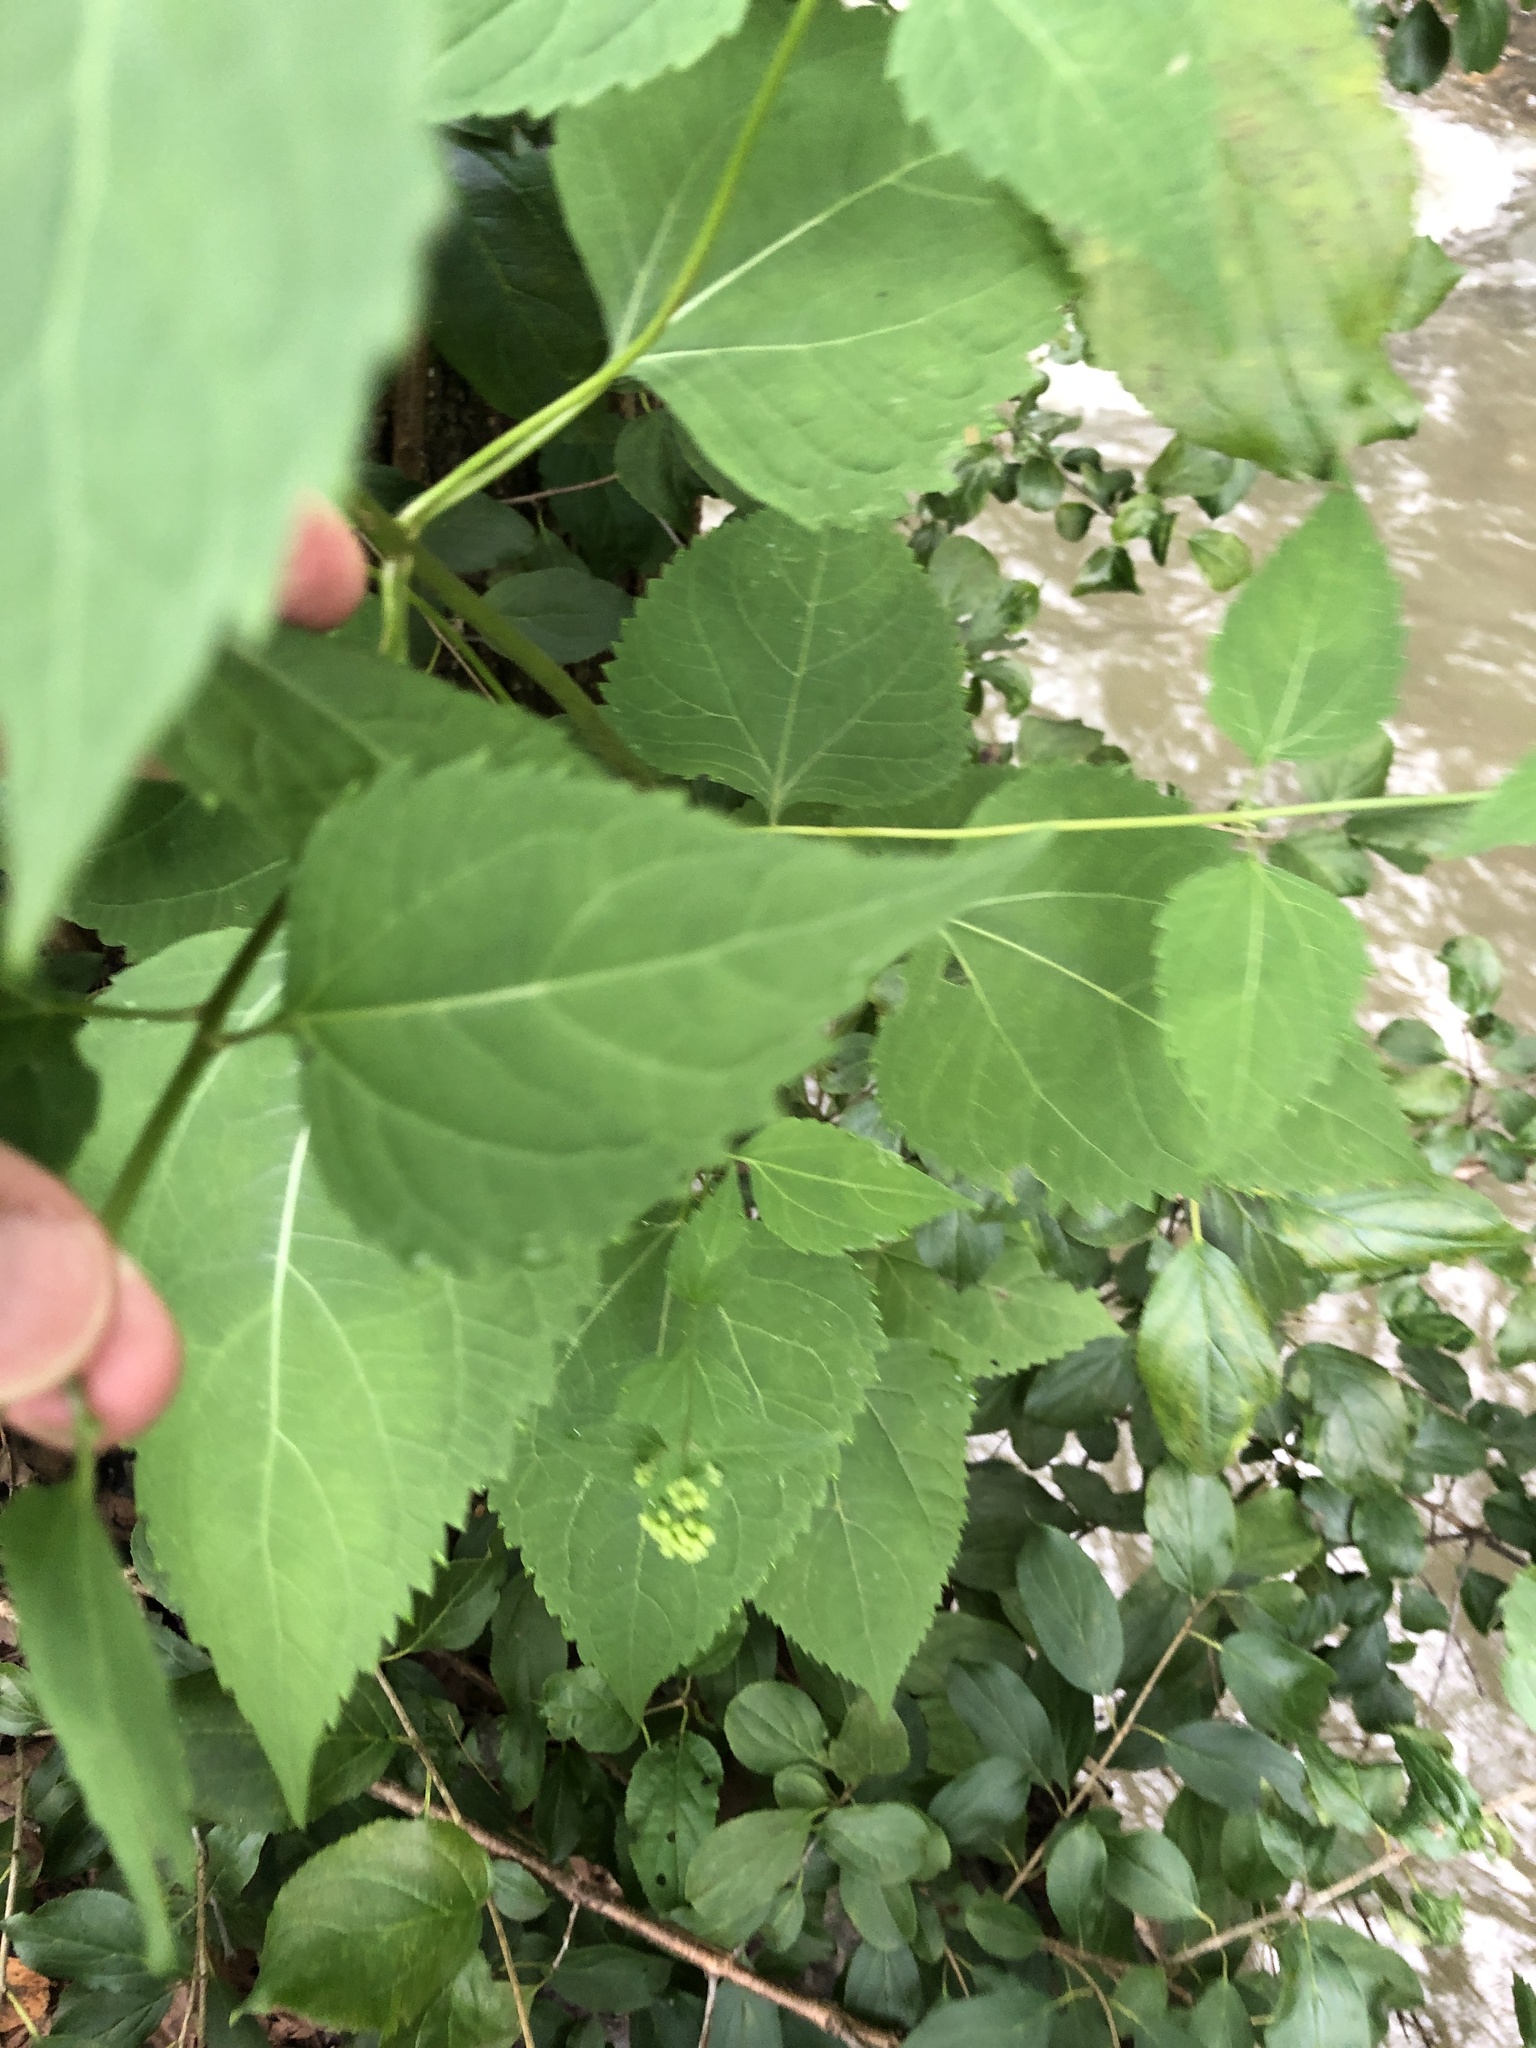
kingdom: Plantae
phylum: Tracheophyta
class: Magnoliopsida
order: Asterales
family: Asteraceae
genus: Ageratina
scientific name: Ageratina altissima
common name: White snakeroot
